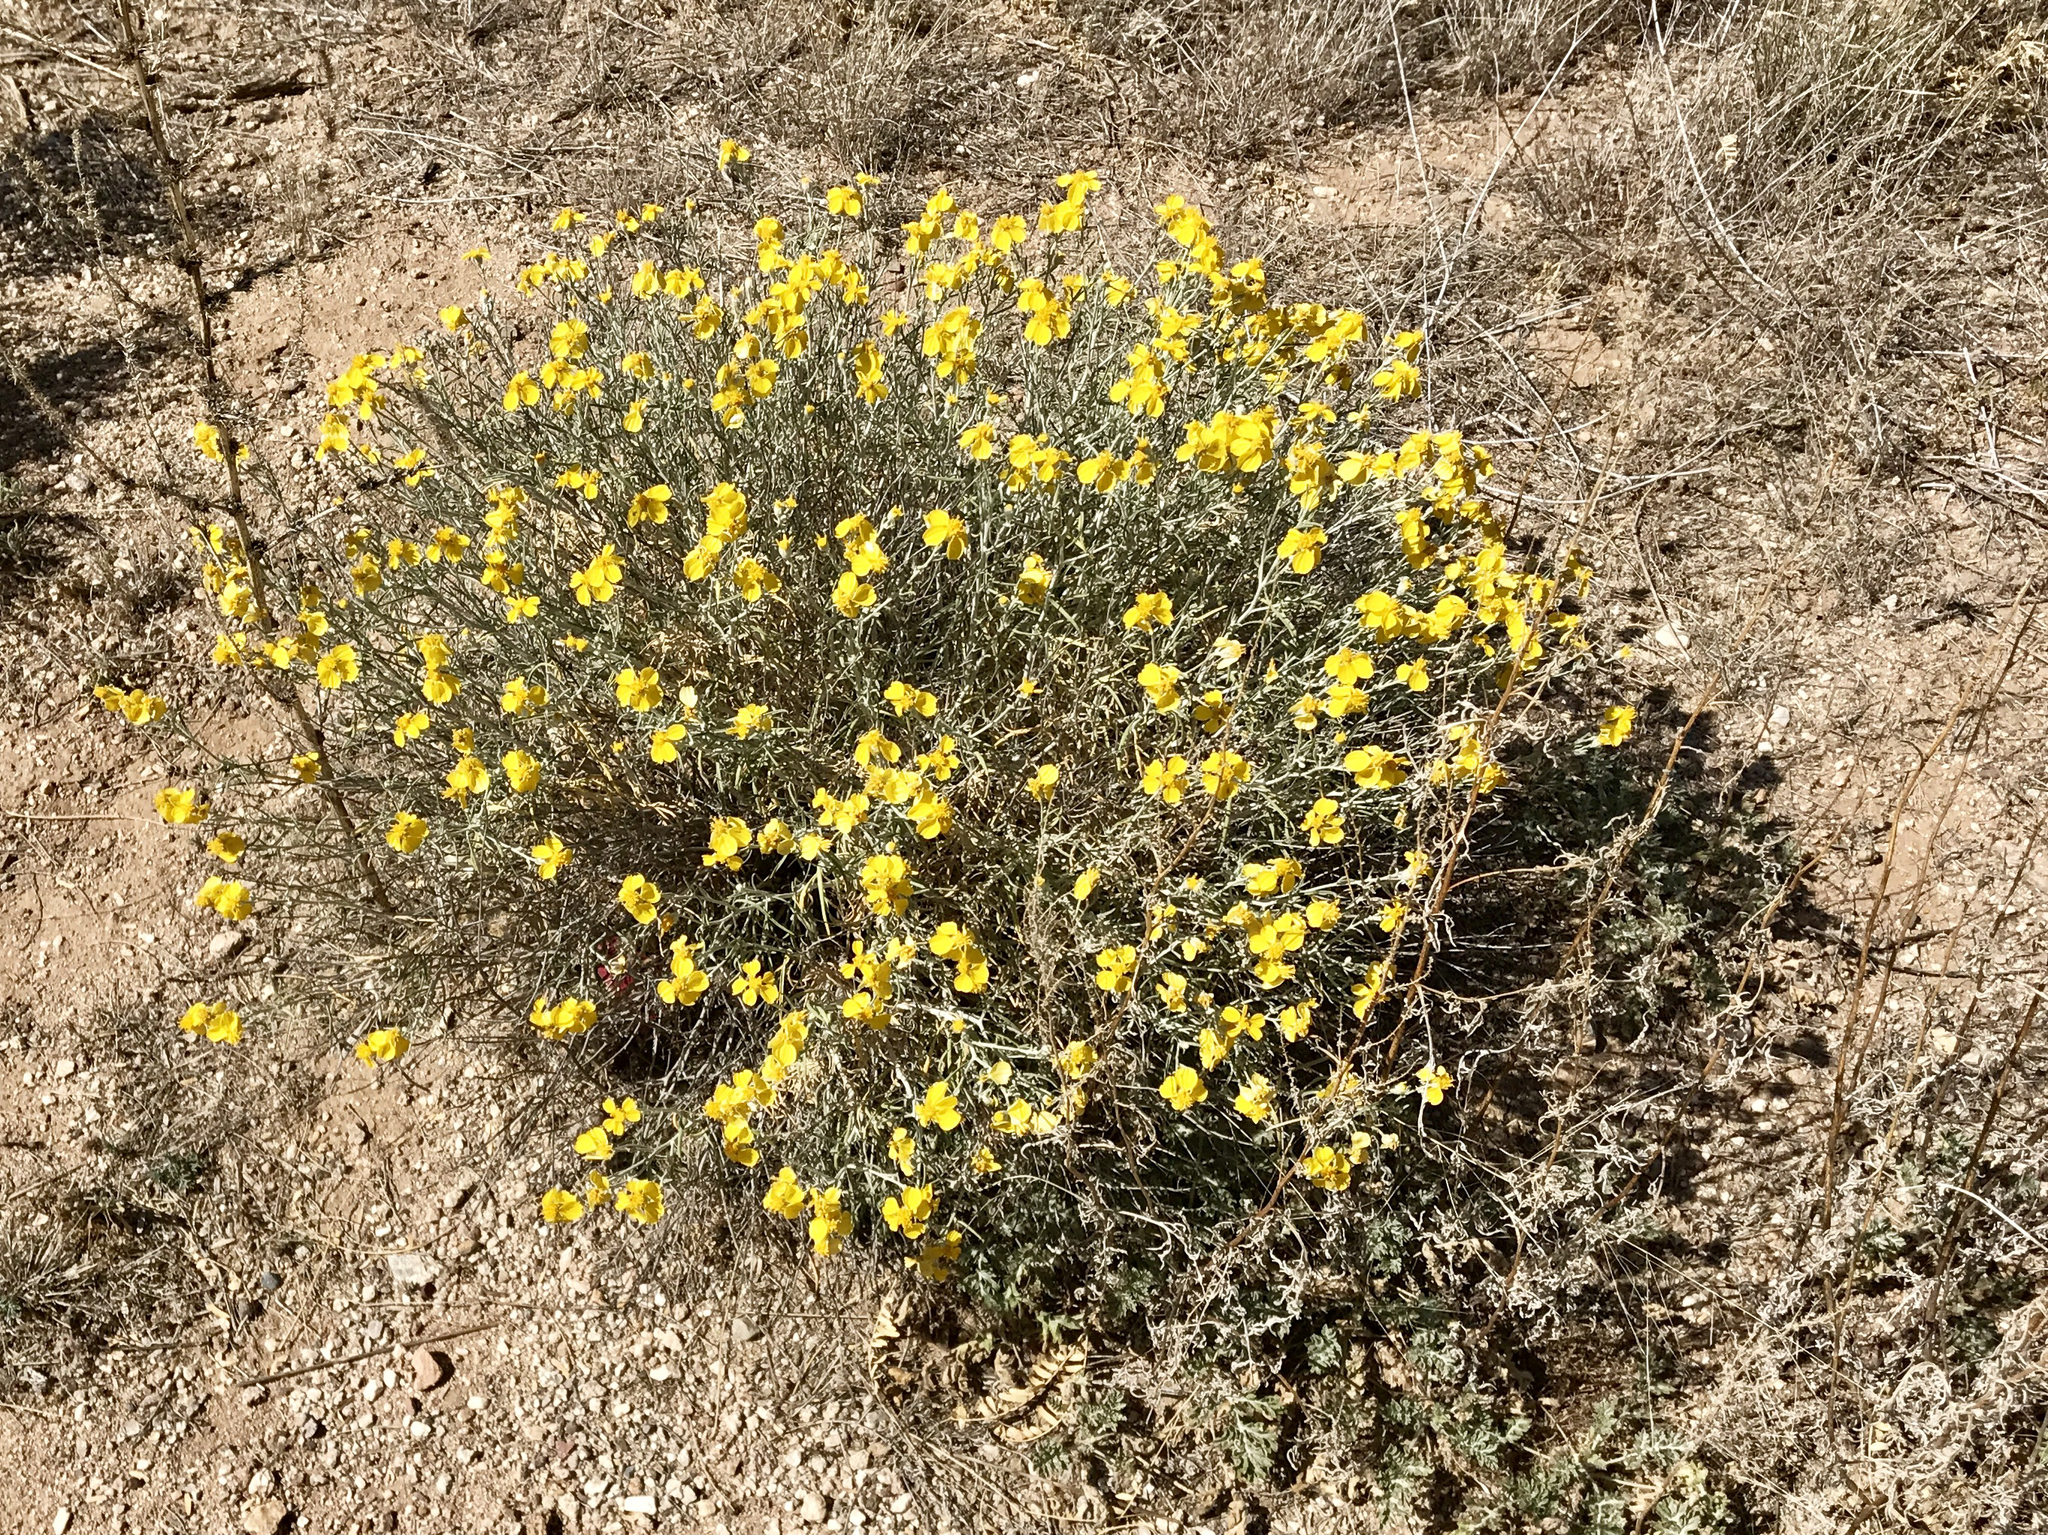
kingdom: Plantae
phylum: Tracheophyta
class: Magnoliopsida
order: Asterales
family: Asteraceae
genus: Psilostrophe
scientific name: Psilostrophe cooperi
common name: White-stem paper-flower
